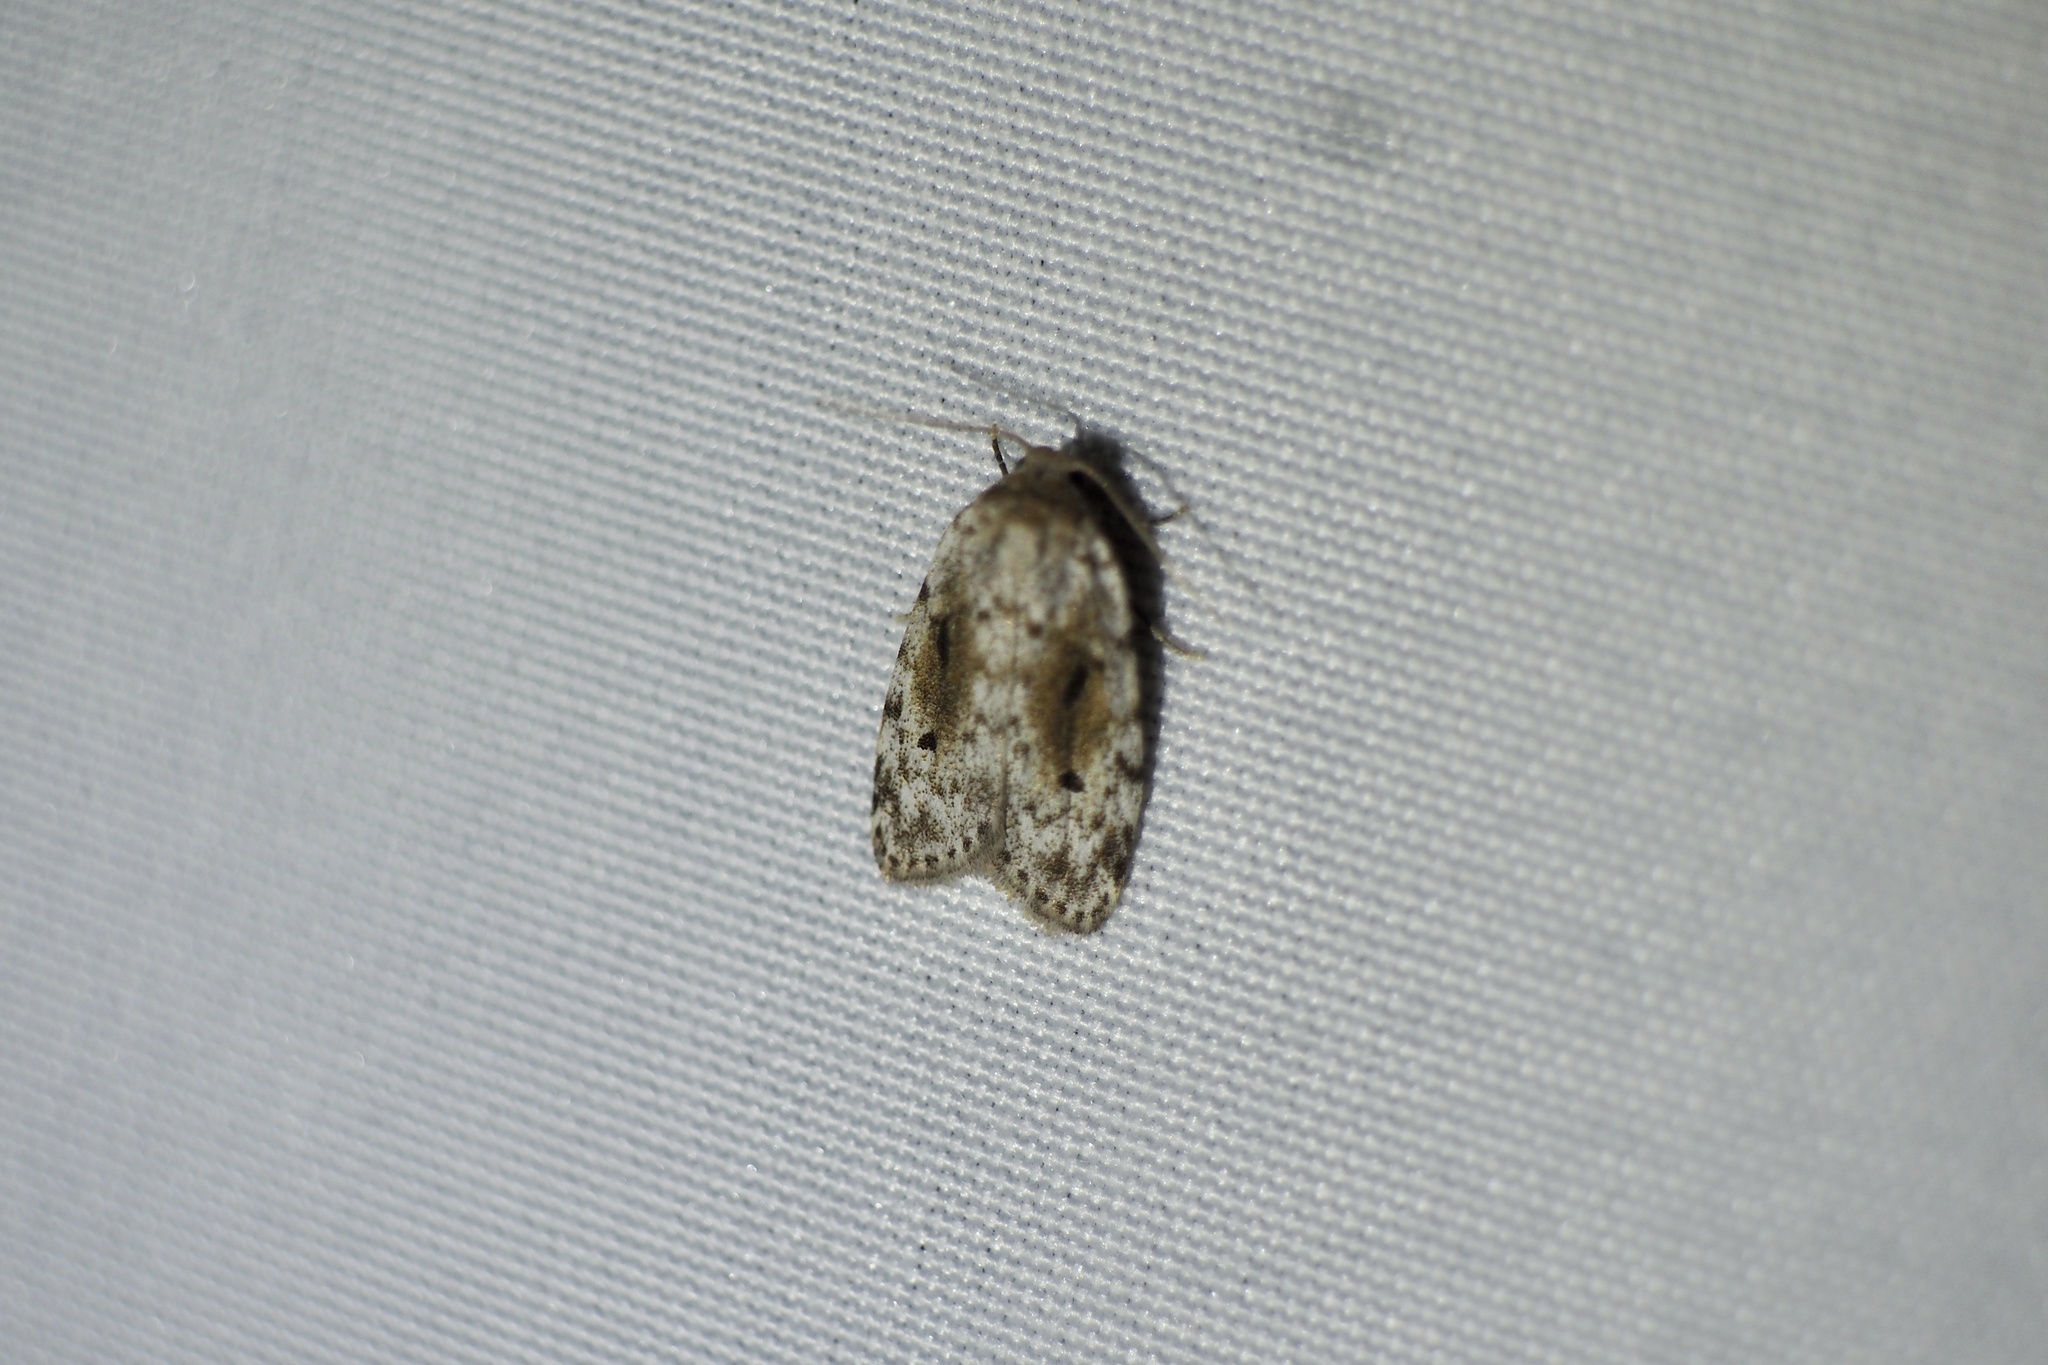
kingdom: Animalia
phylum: Arthropoda
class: Insecta
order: Lepidoptera
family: Erebidae
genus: Siccia
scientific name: Siccia obscura
